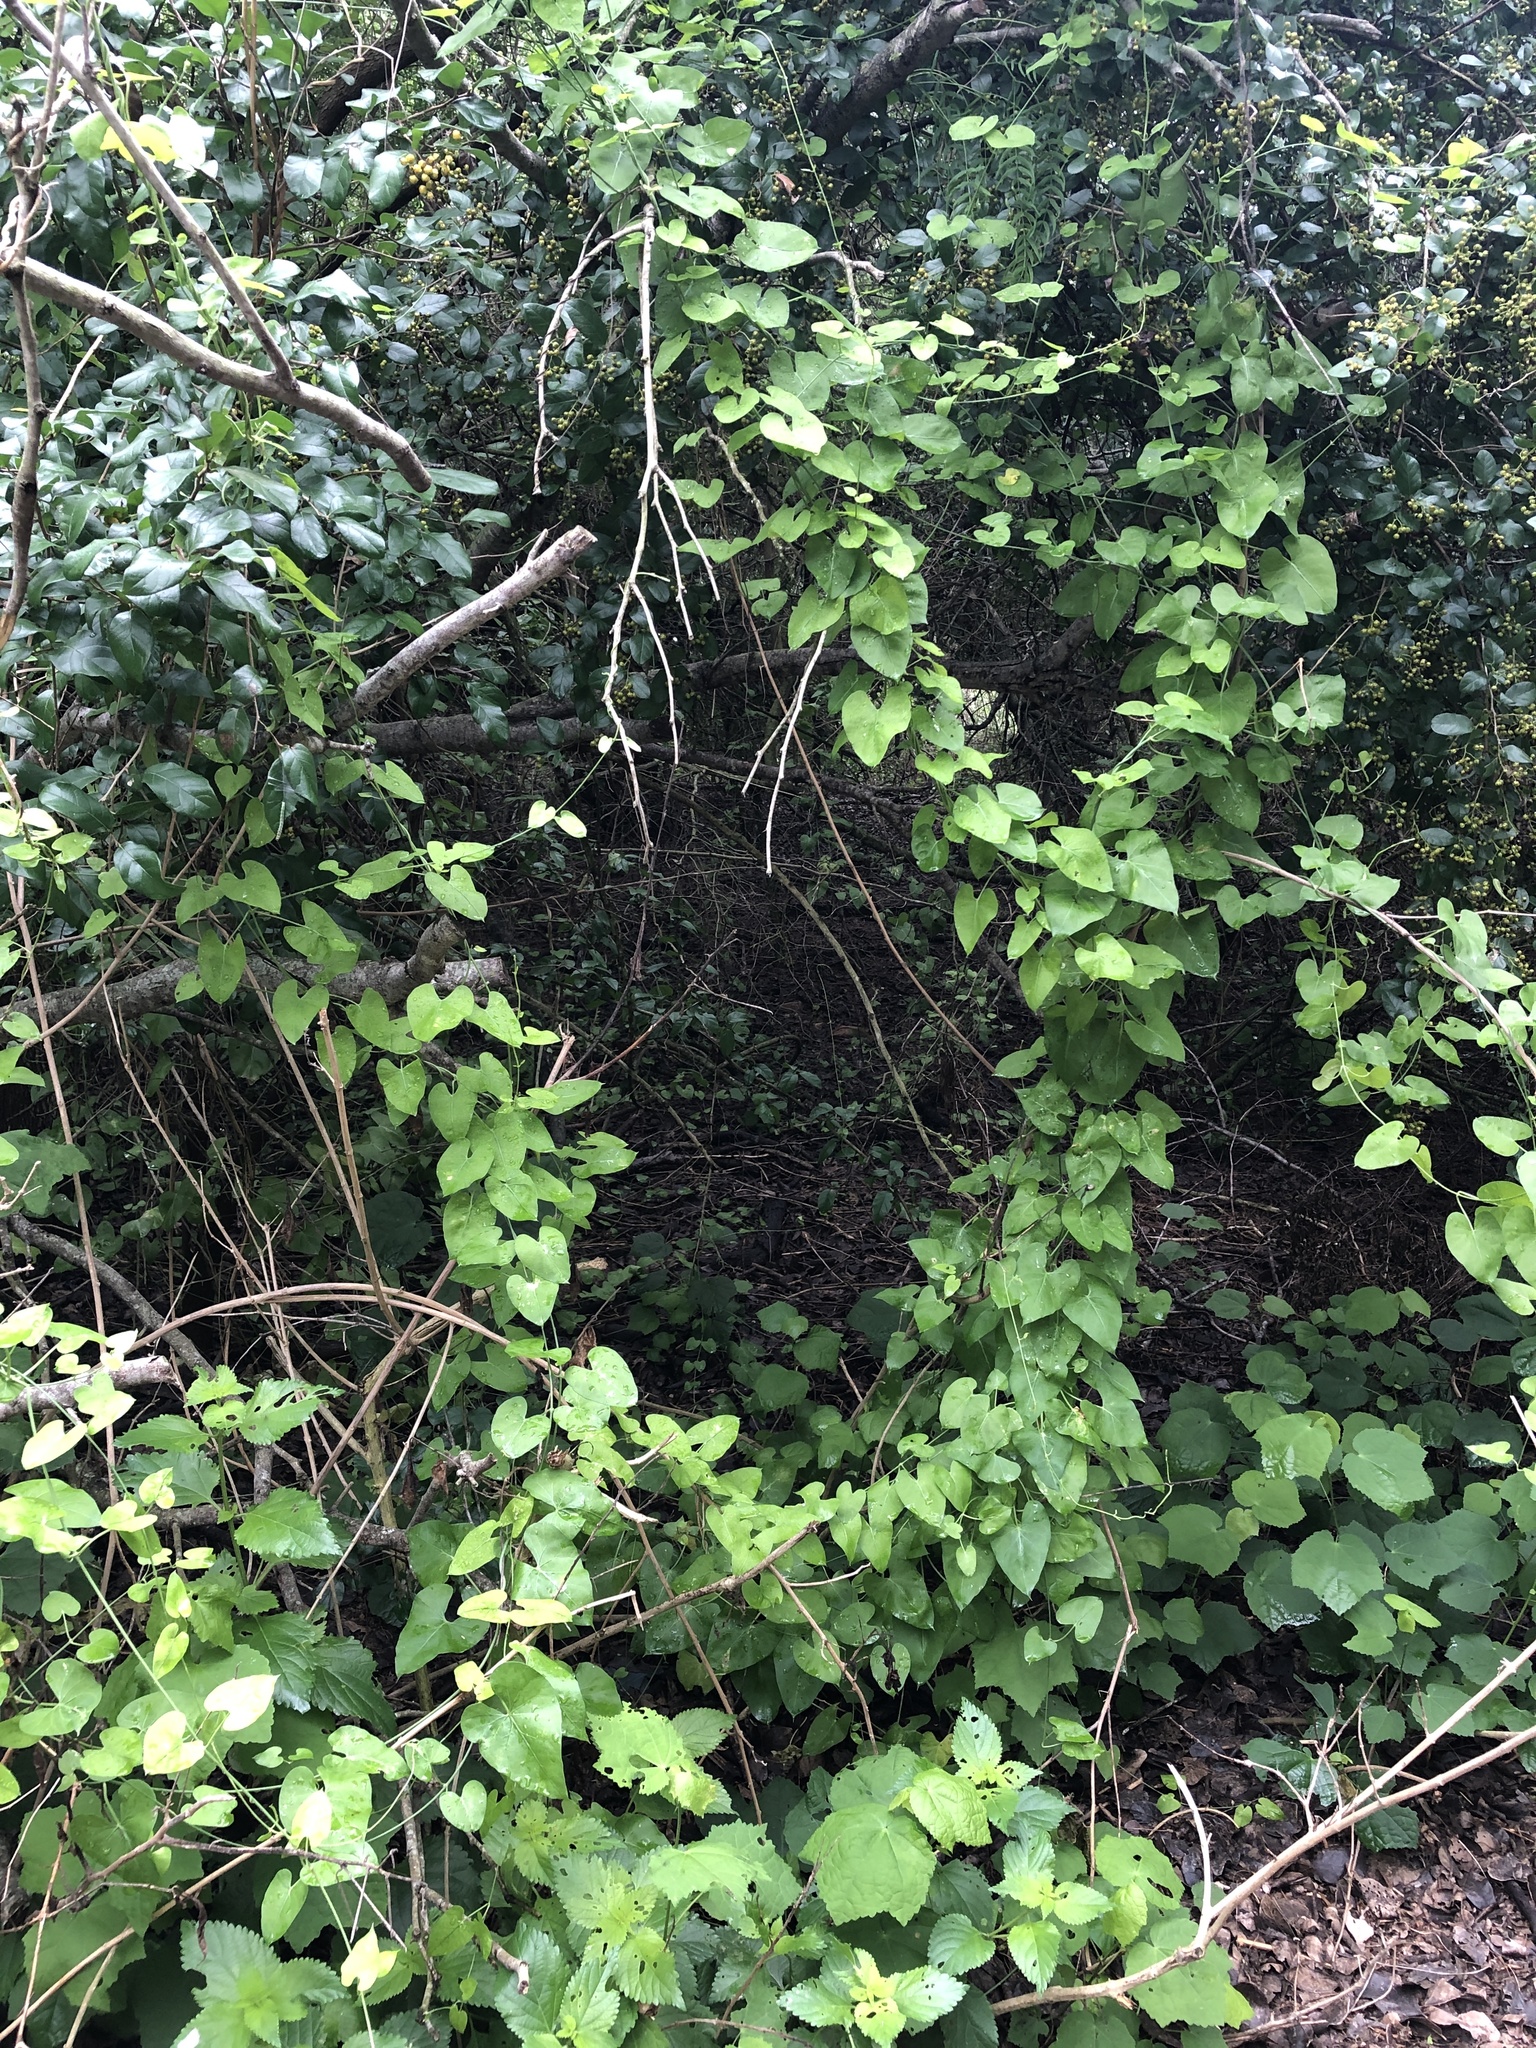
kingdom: Animalia
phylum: Chordata
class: Aves
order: Passeriformes
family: Vireonidae
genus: Vireo
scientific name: Vireo griseus
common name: White-eyed vireo
